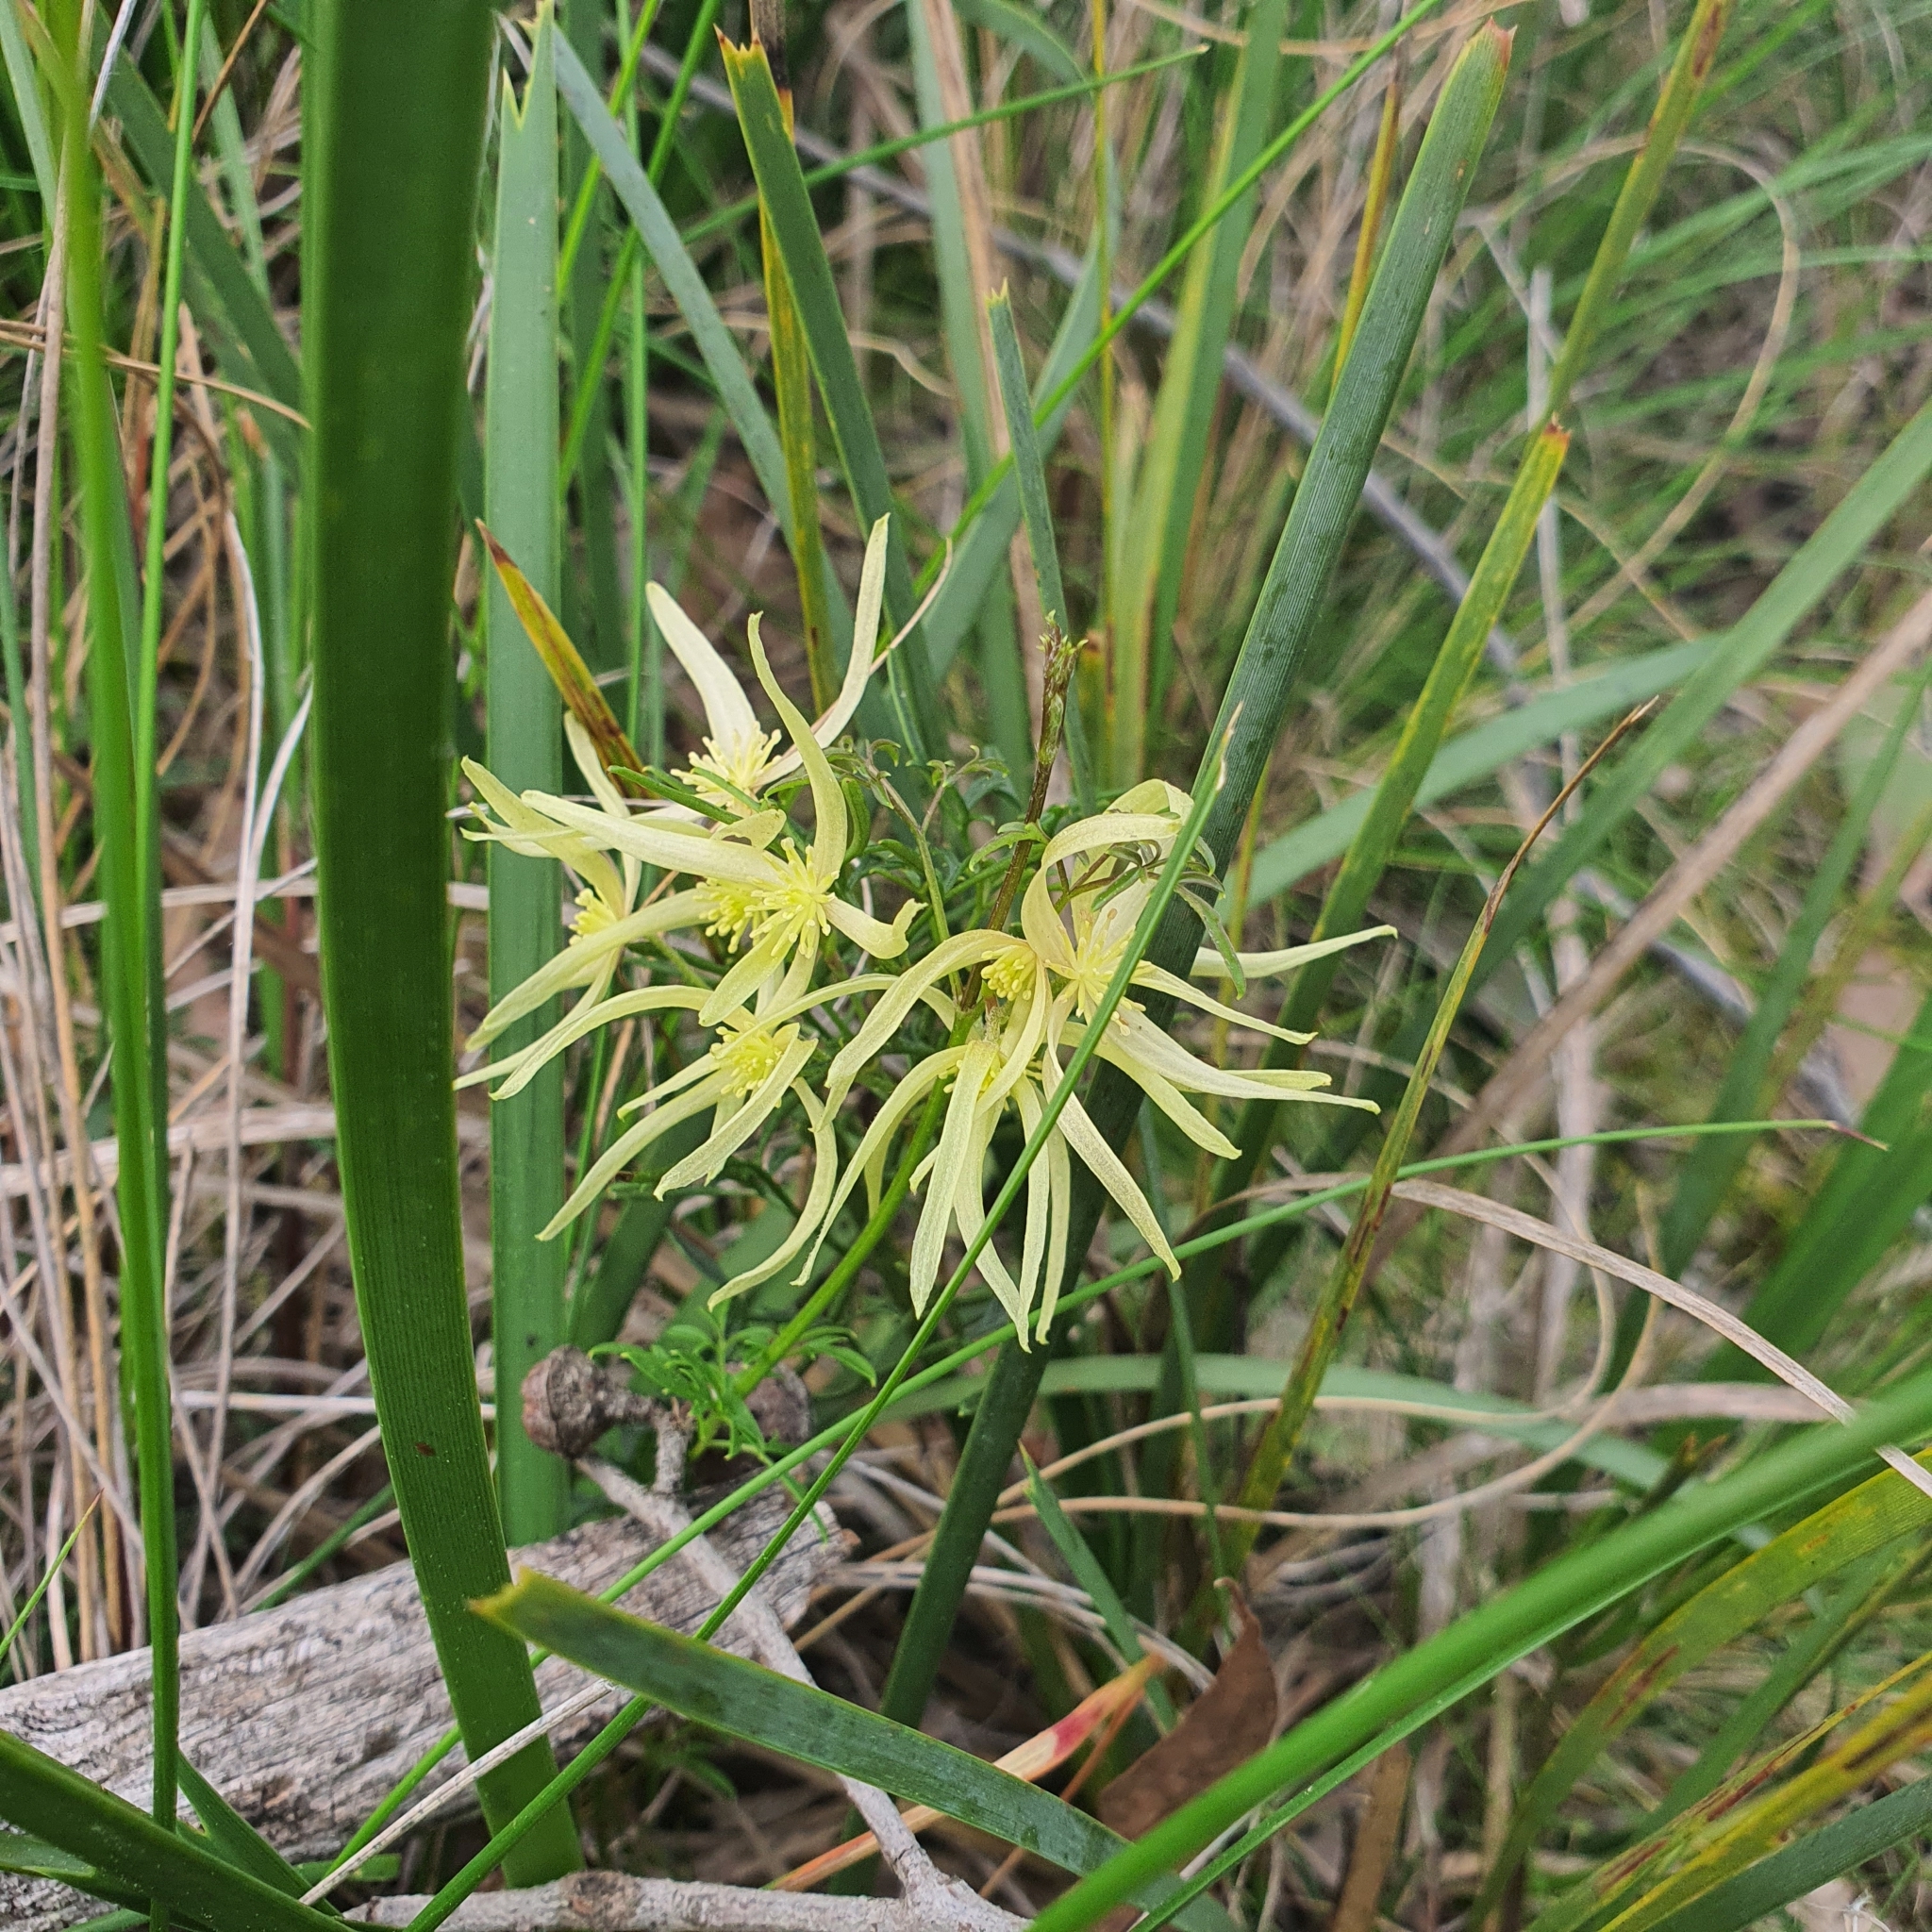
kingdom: Plantae
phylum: Tracheophyta
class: Magnoliopsida
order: Ranunculales
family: Ranunculaceae
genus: Clematis
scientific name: Clematis leptophylla
